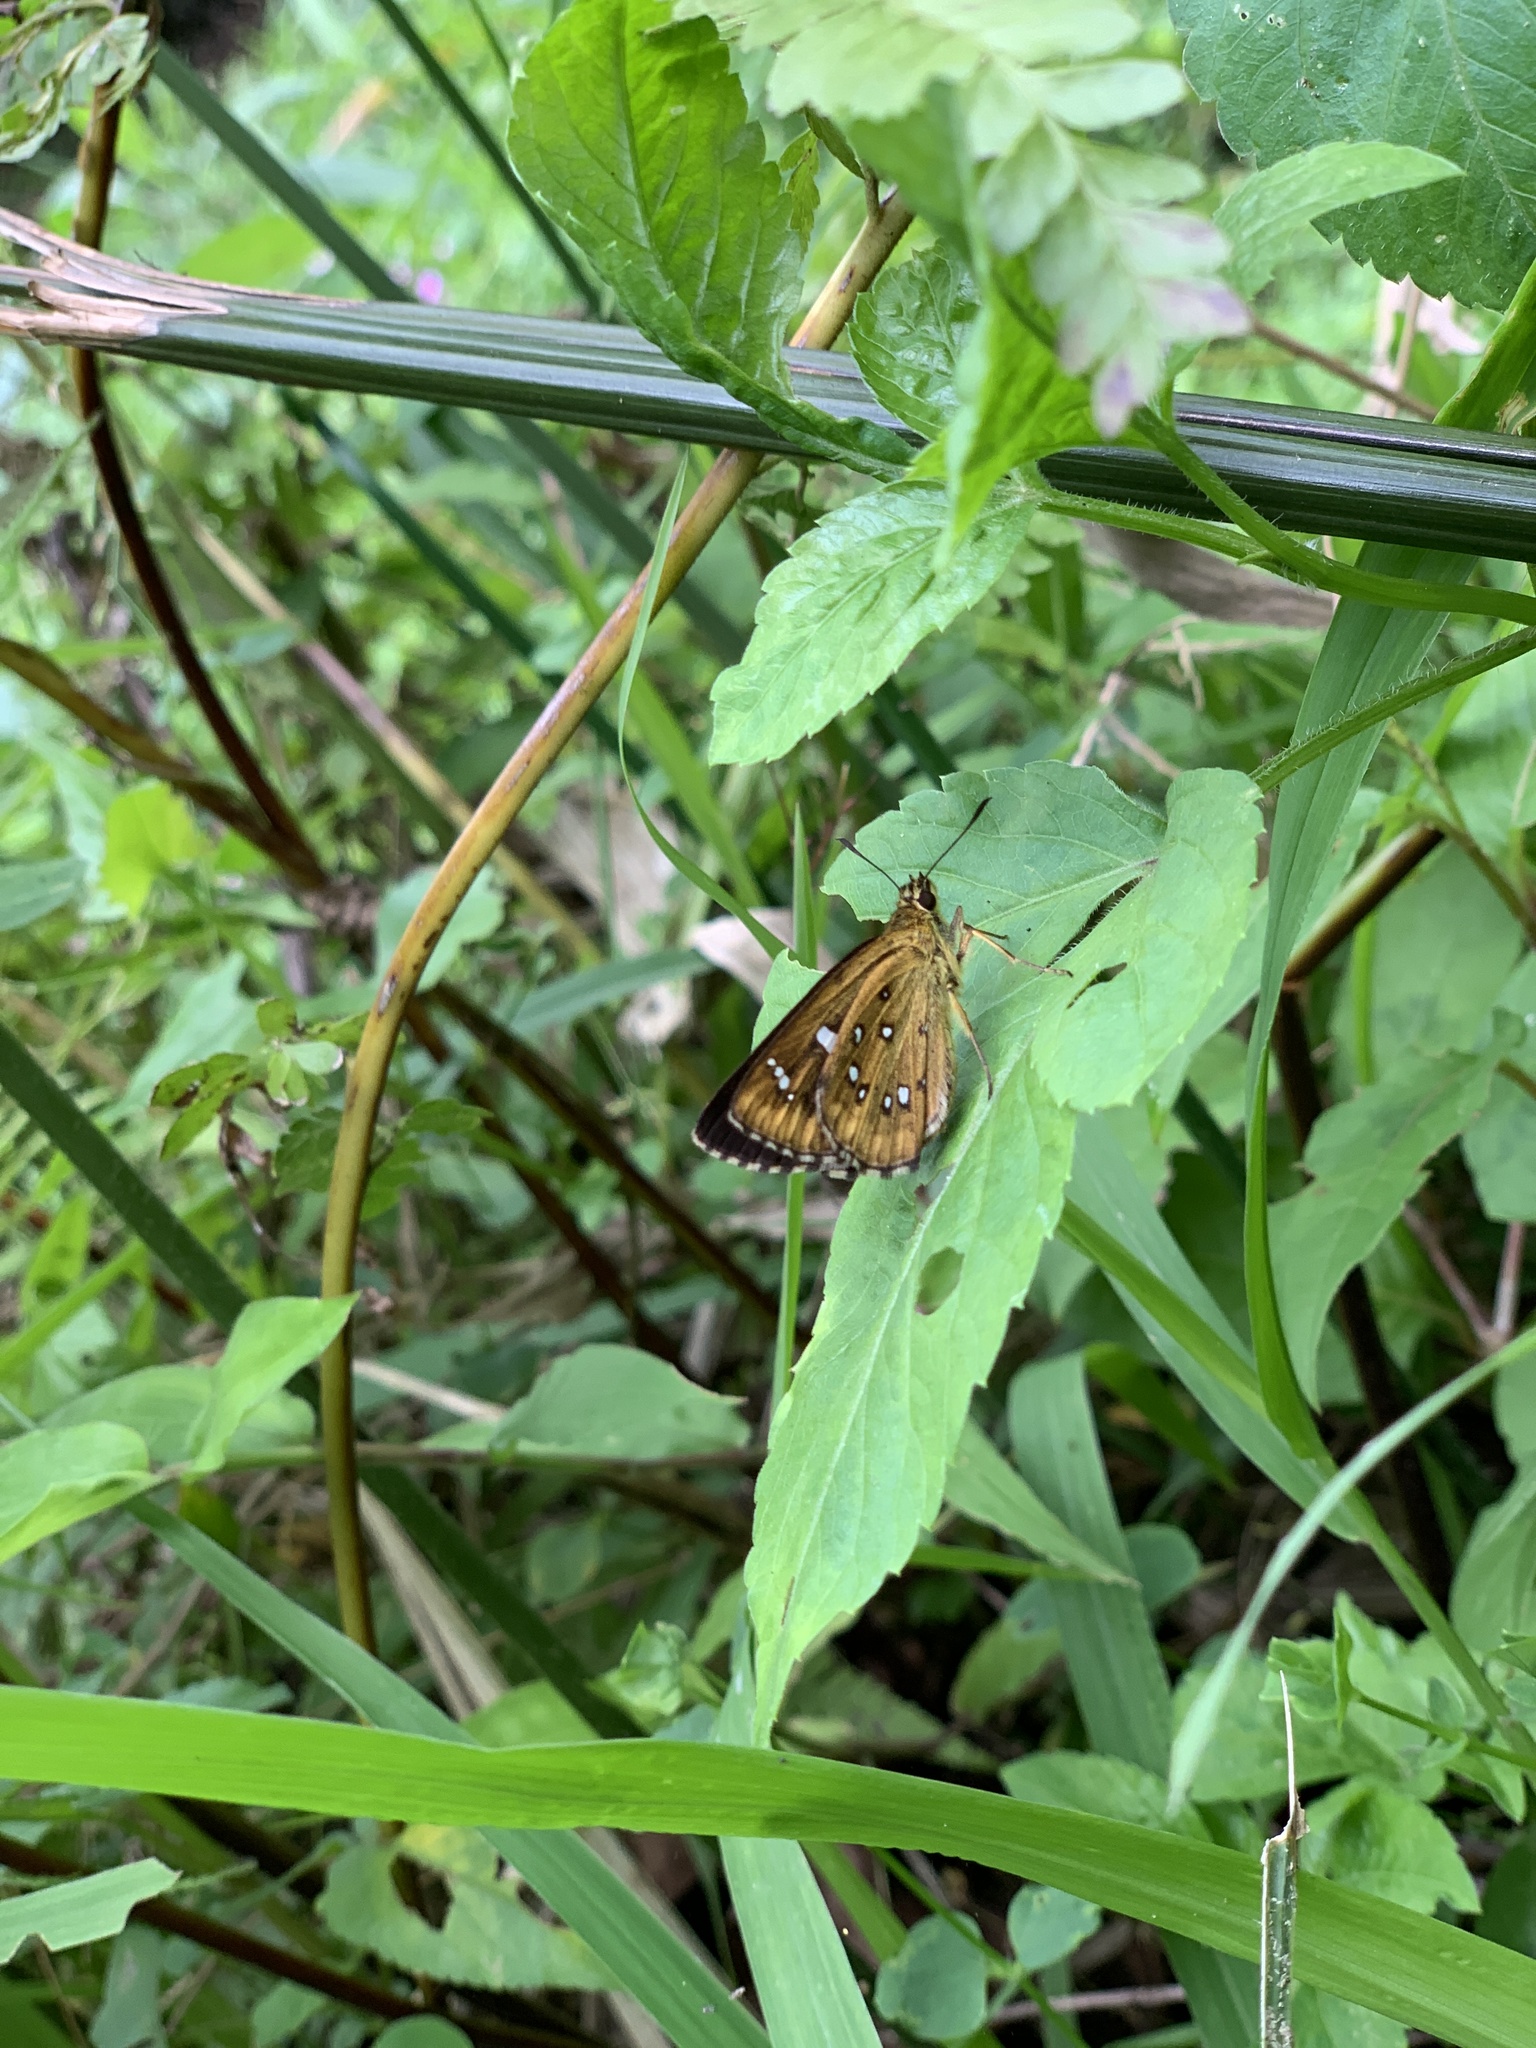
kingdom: Animalia
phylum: Arthropoda
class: Insecta
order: Lepidoptera
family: Hesperiidae
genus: Isoteinon
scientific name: Isoteinon lamprospilus
